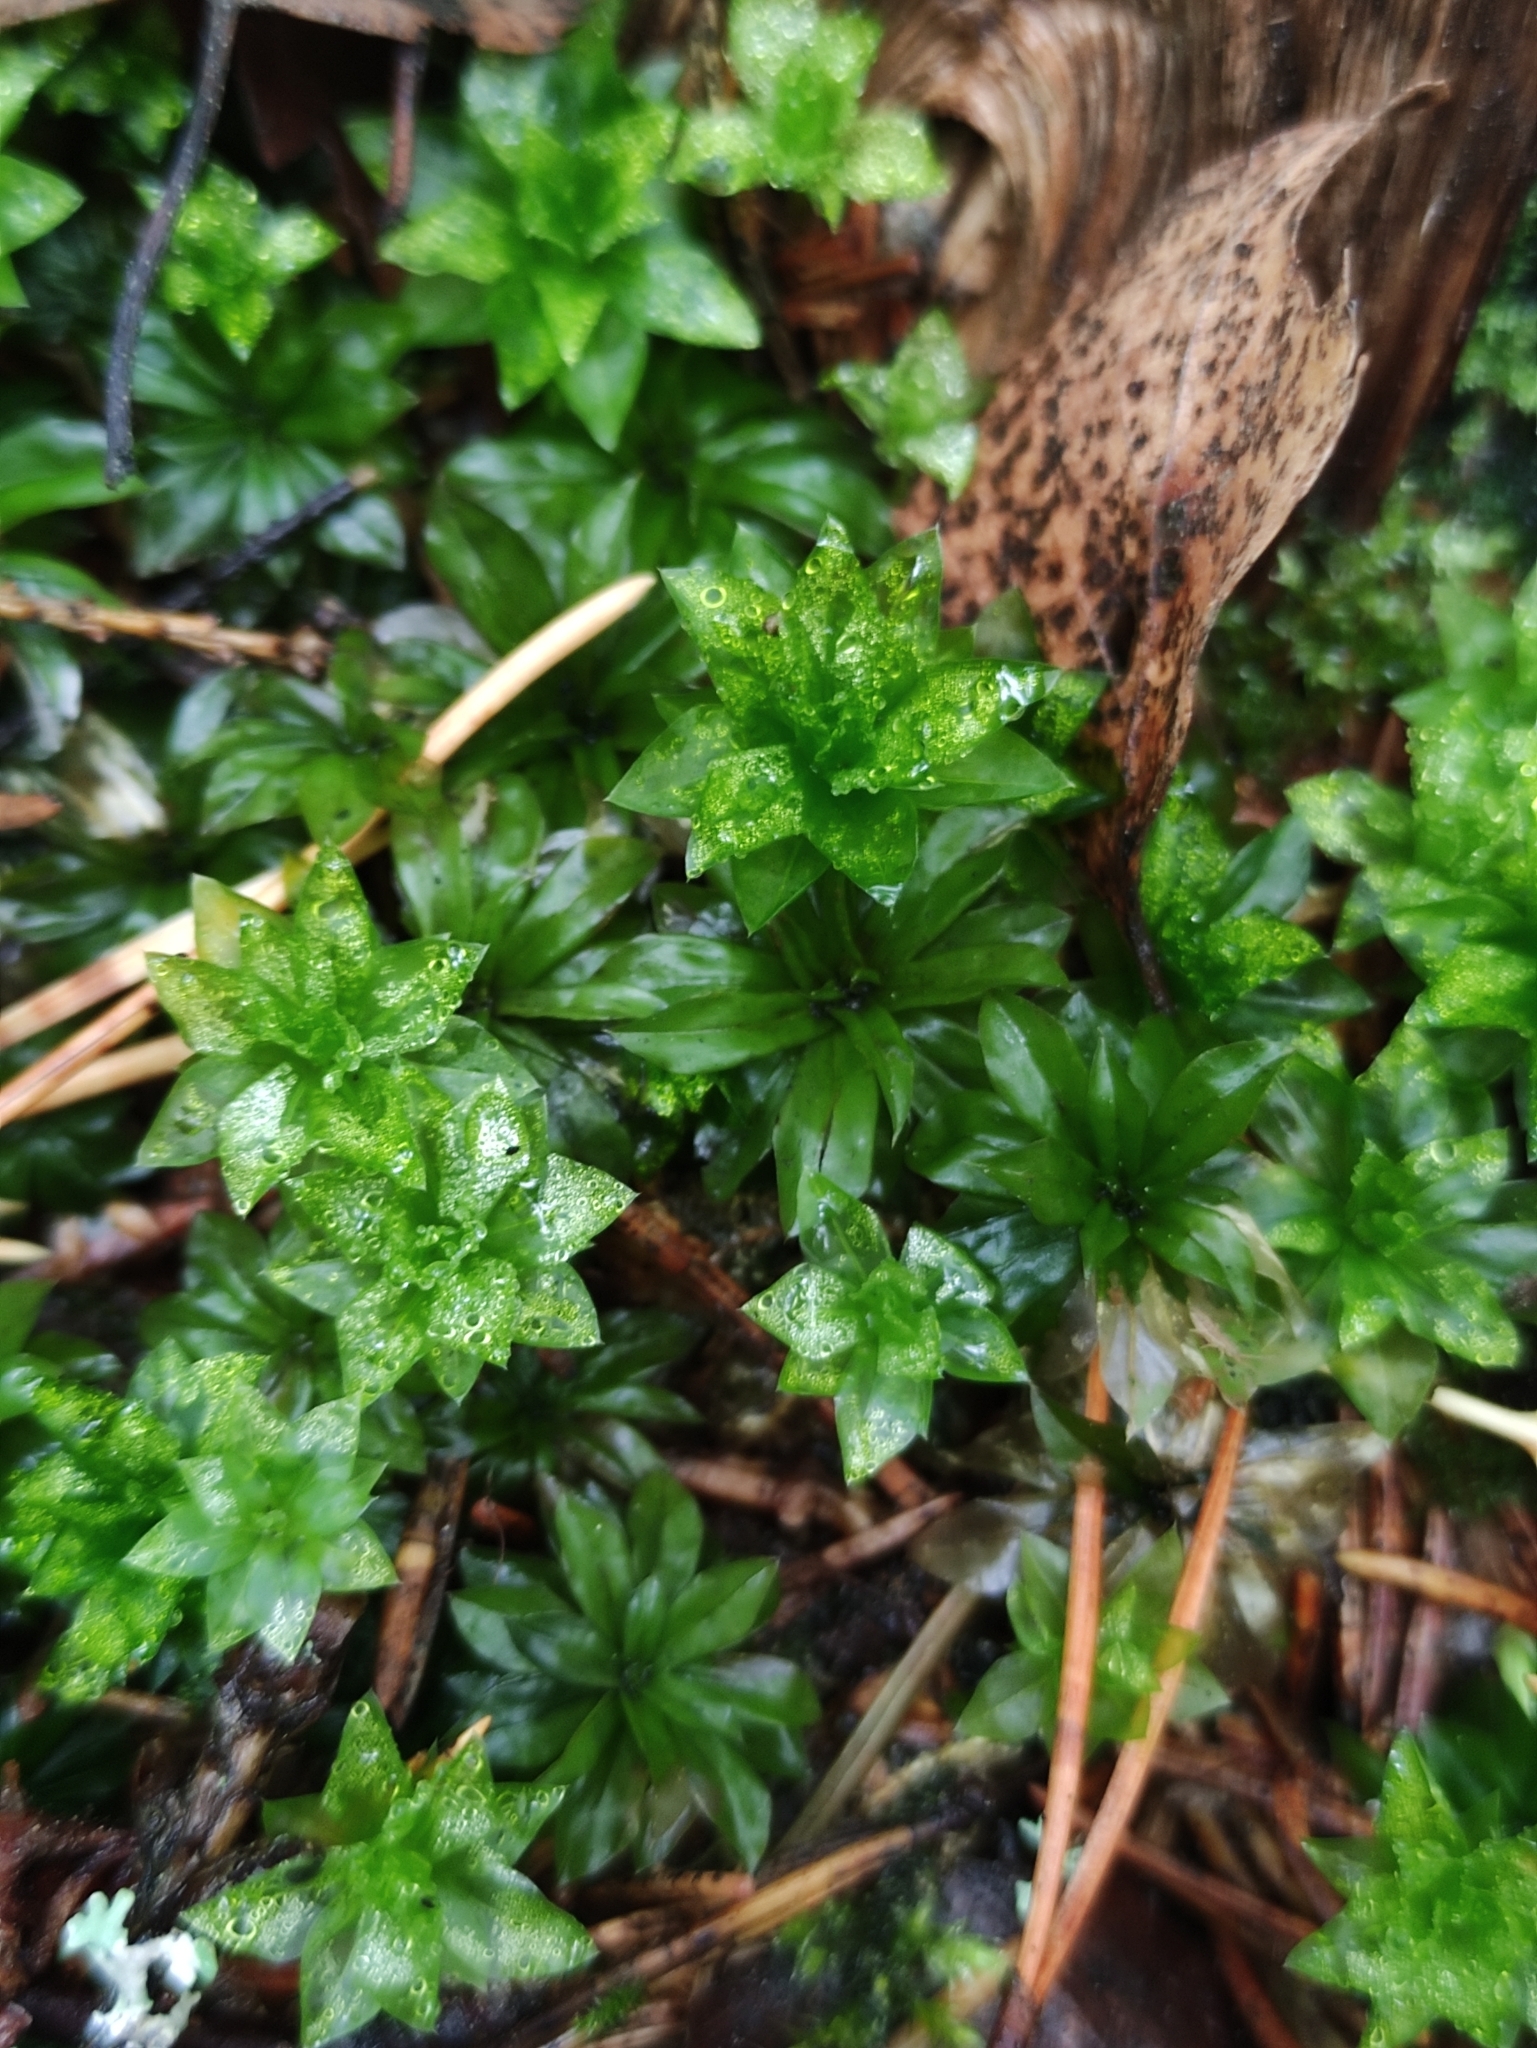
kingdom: Plantae
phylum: Bryophyta
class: Bryopsida
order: Bryales
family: Bryaceae
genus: Rhodobryum
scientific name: Rhodobryum roseum
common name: Rose-moss
